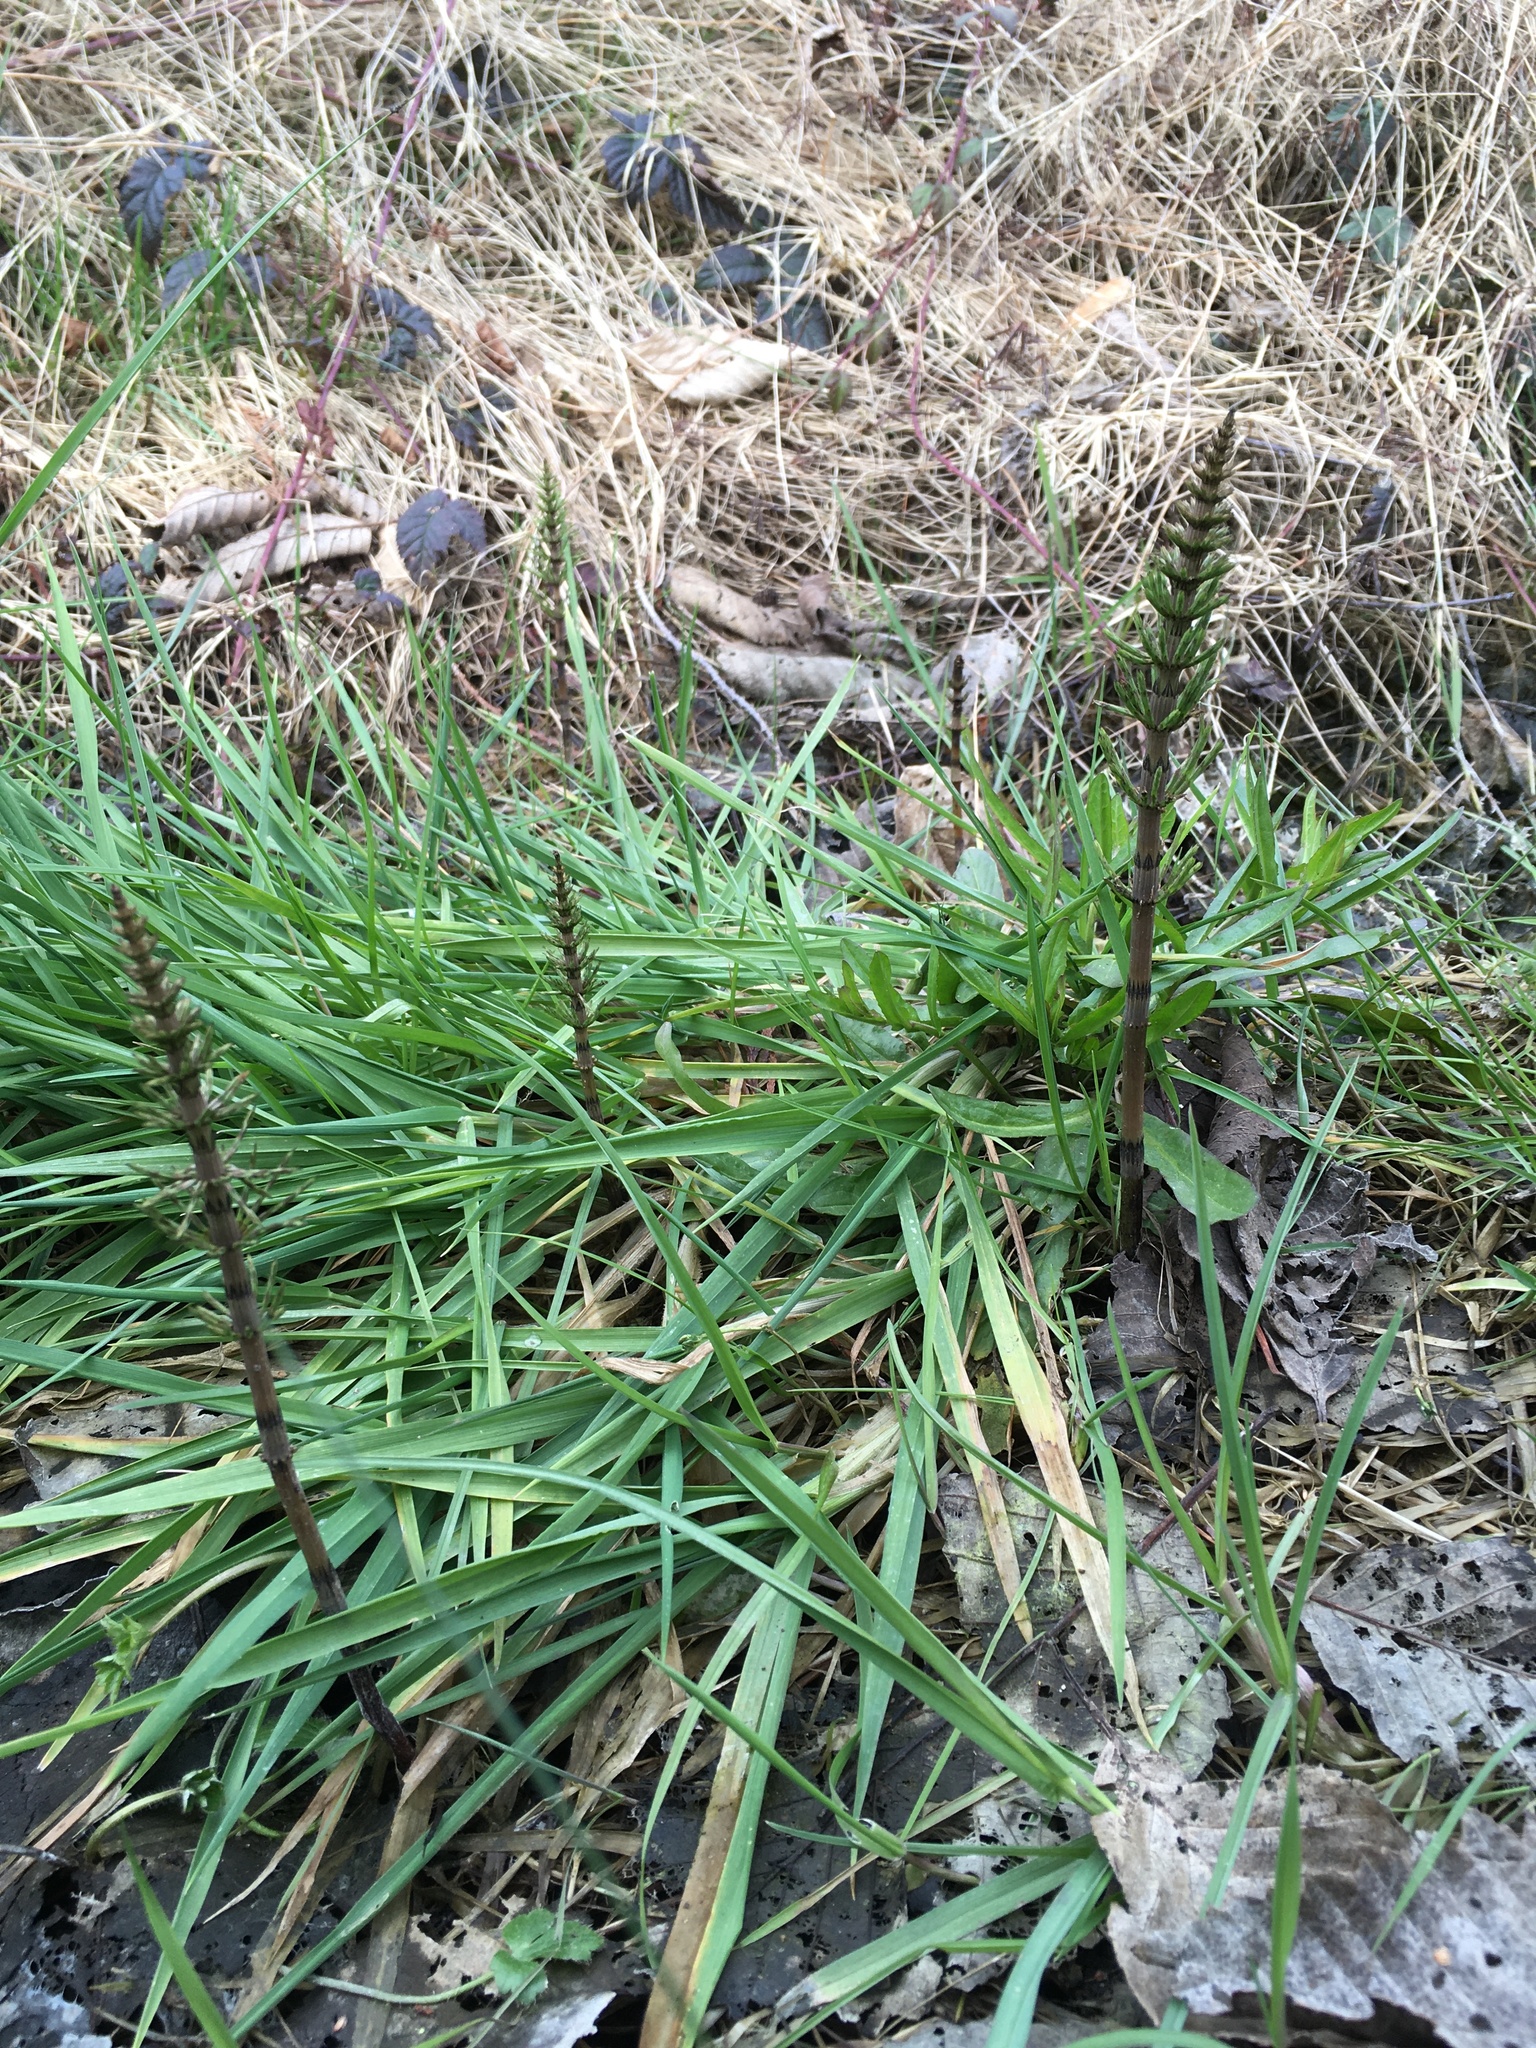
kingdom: Plantae
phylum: Tracheophyta
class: Polypodiopsida
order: Equisetales
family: Equisetaceae
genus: Equisetum
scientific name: Equisetum arvense
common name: Field horsetail
